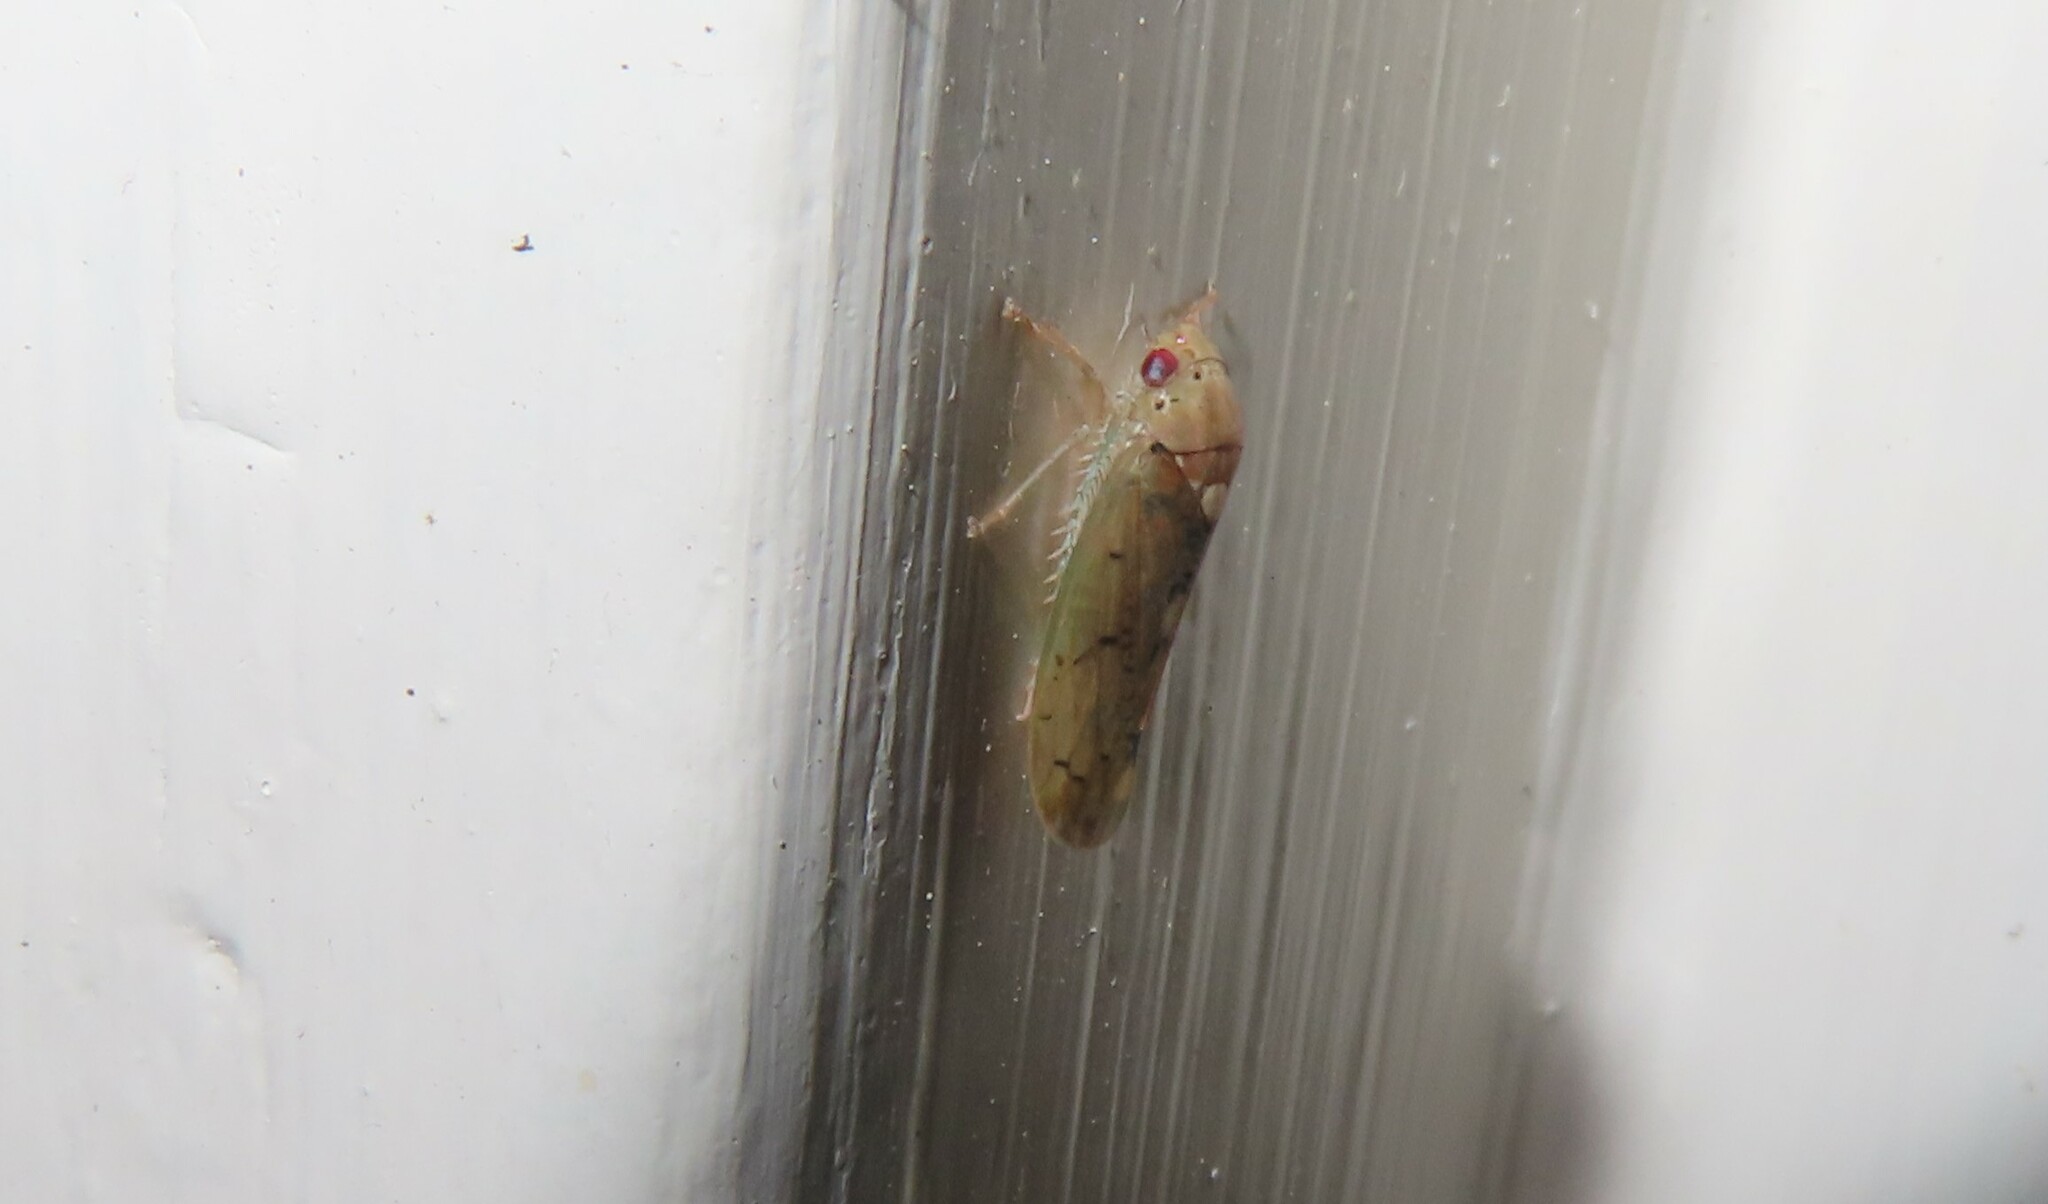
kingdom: Animalia
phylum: Arthropoda
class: Insecta
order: Hemiptera
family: Cicadellidae
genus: Ponana
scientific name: Ponana quadralaba
